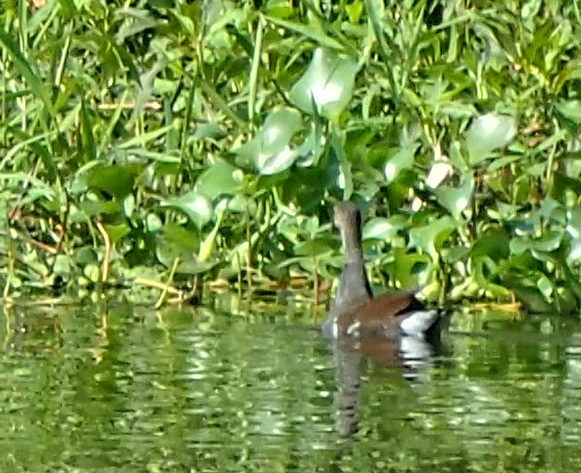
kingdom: Animalia
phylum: Chordata
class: Aves
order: Gruiformes
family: Rallidae
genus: Gallinula
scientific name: Gallinula chloropus
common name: Common moorhen
